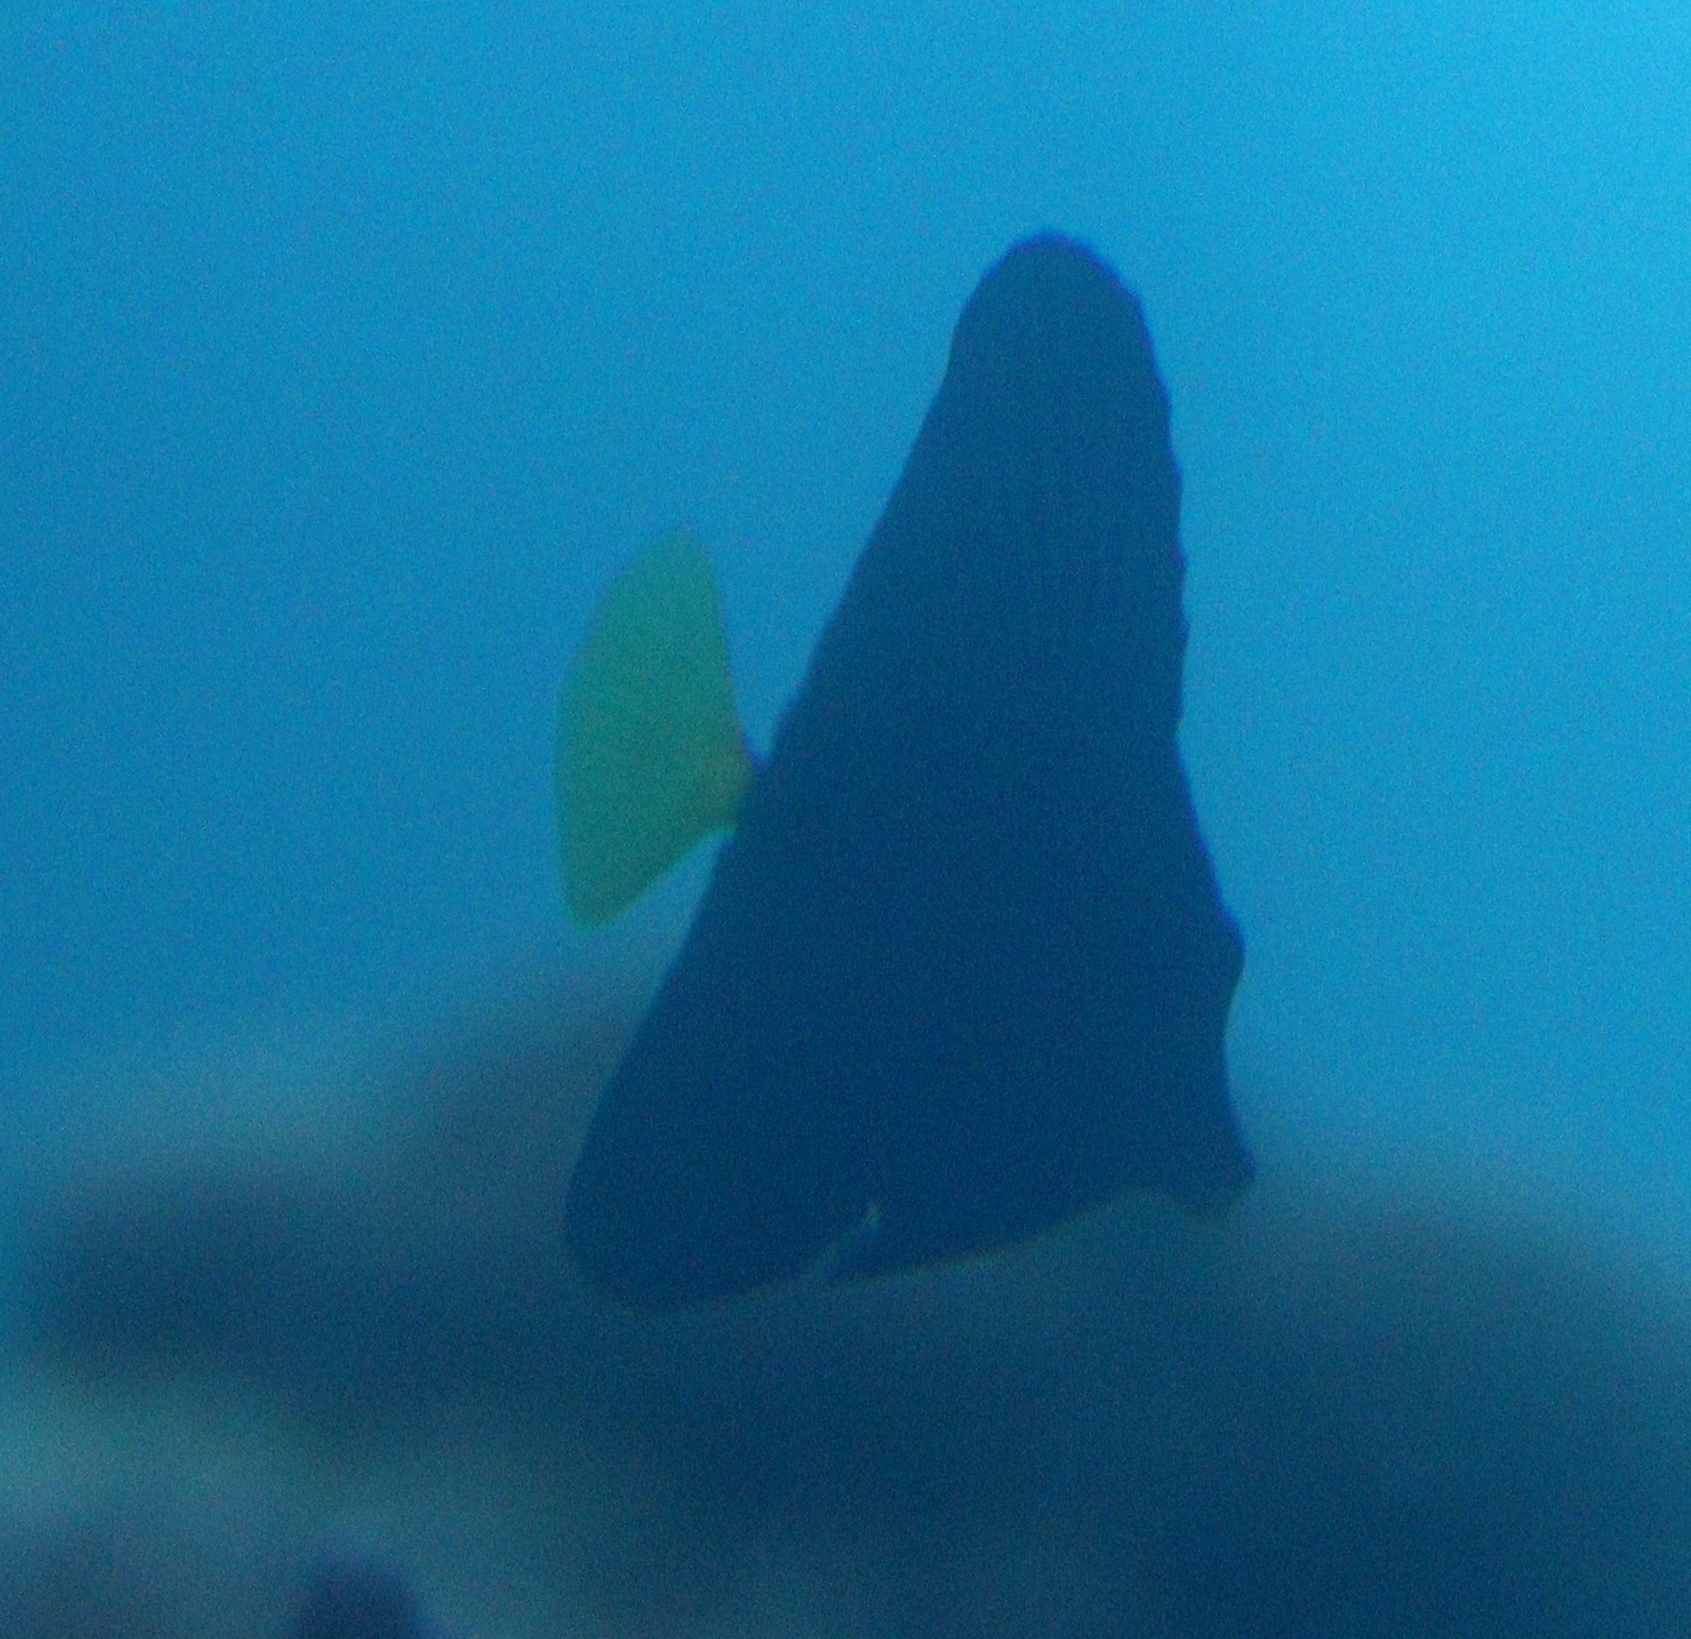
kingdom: Animalia
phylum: Chordata
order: Perciformes
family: Acanthuridae
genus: Zebrasoma
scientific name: Zebrasoma xanthurum
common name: Purple tang
